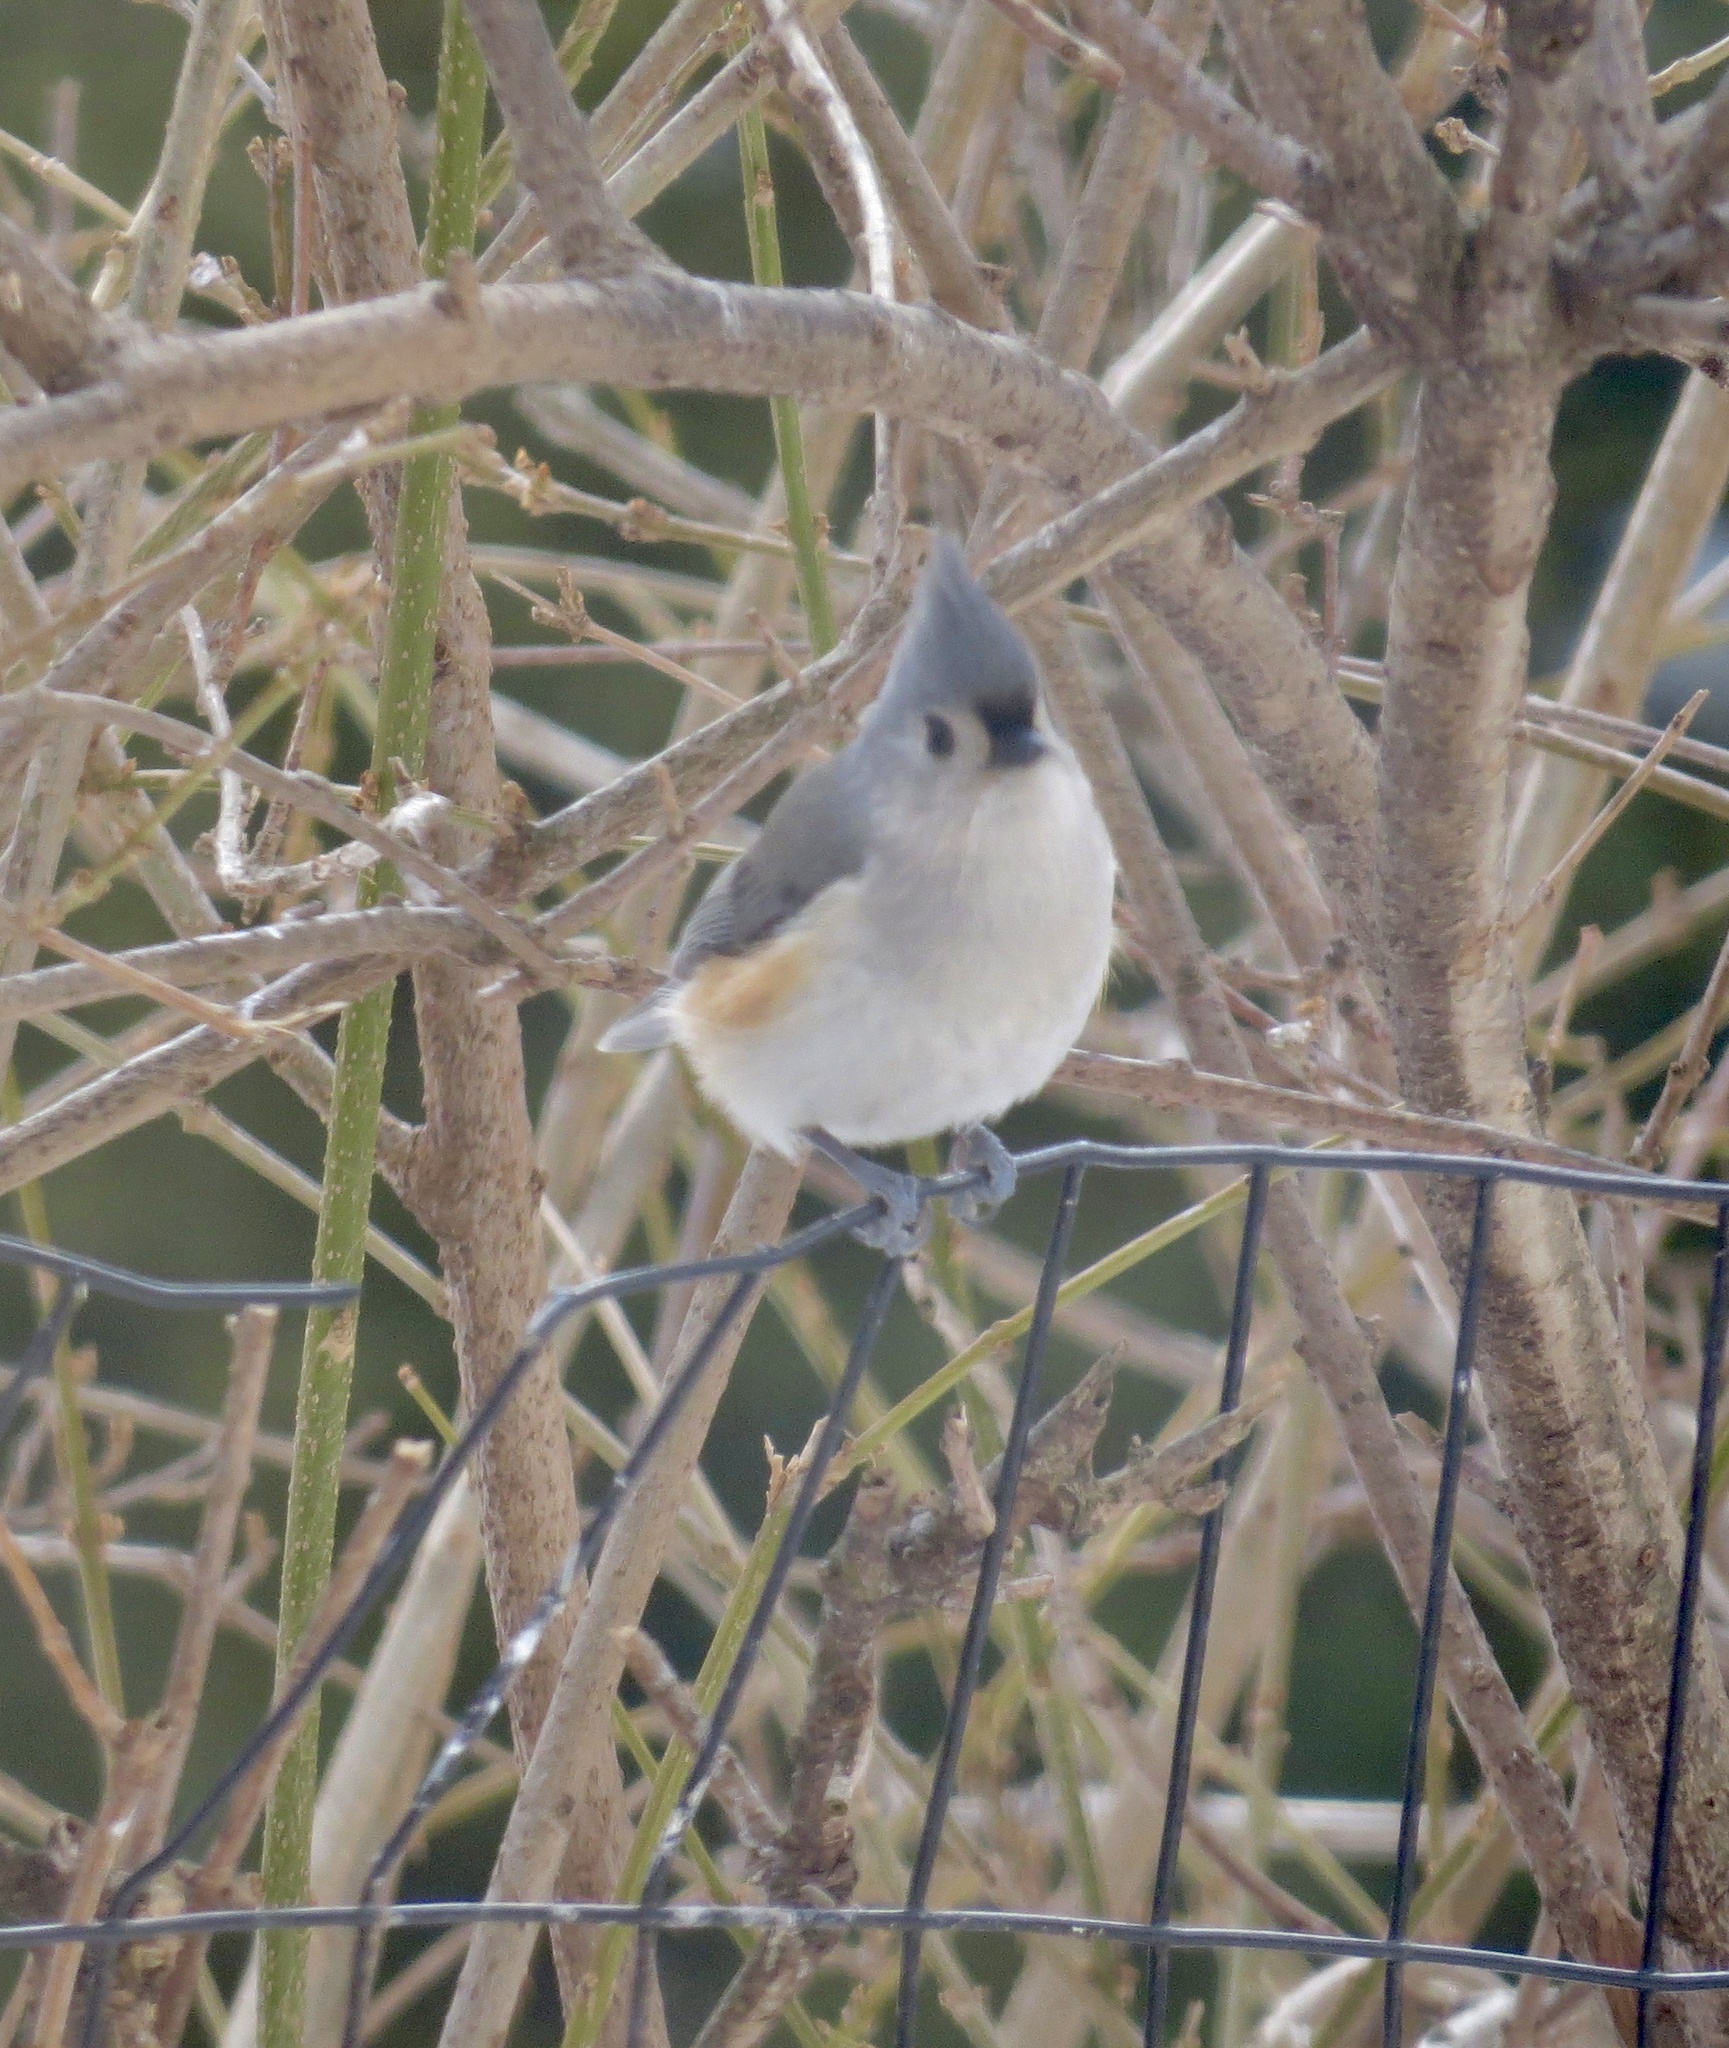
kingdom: Animalia
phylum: Chordata
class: Aves
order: Passeriformes
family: Paridae
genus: Baeolophus
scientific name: Baeolophus bicolor
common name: Tufted titmouse
